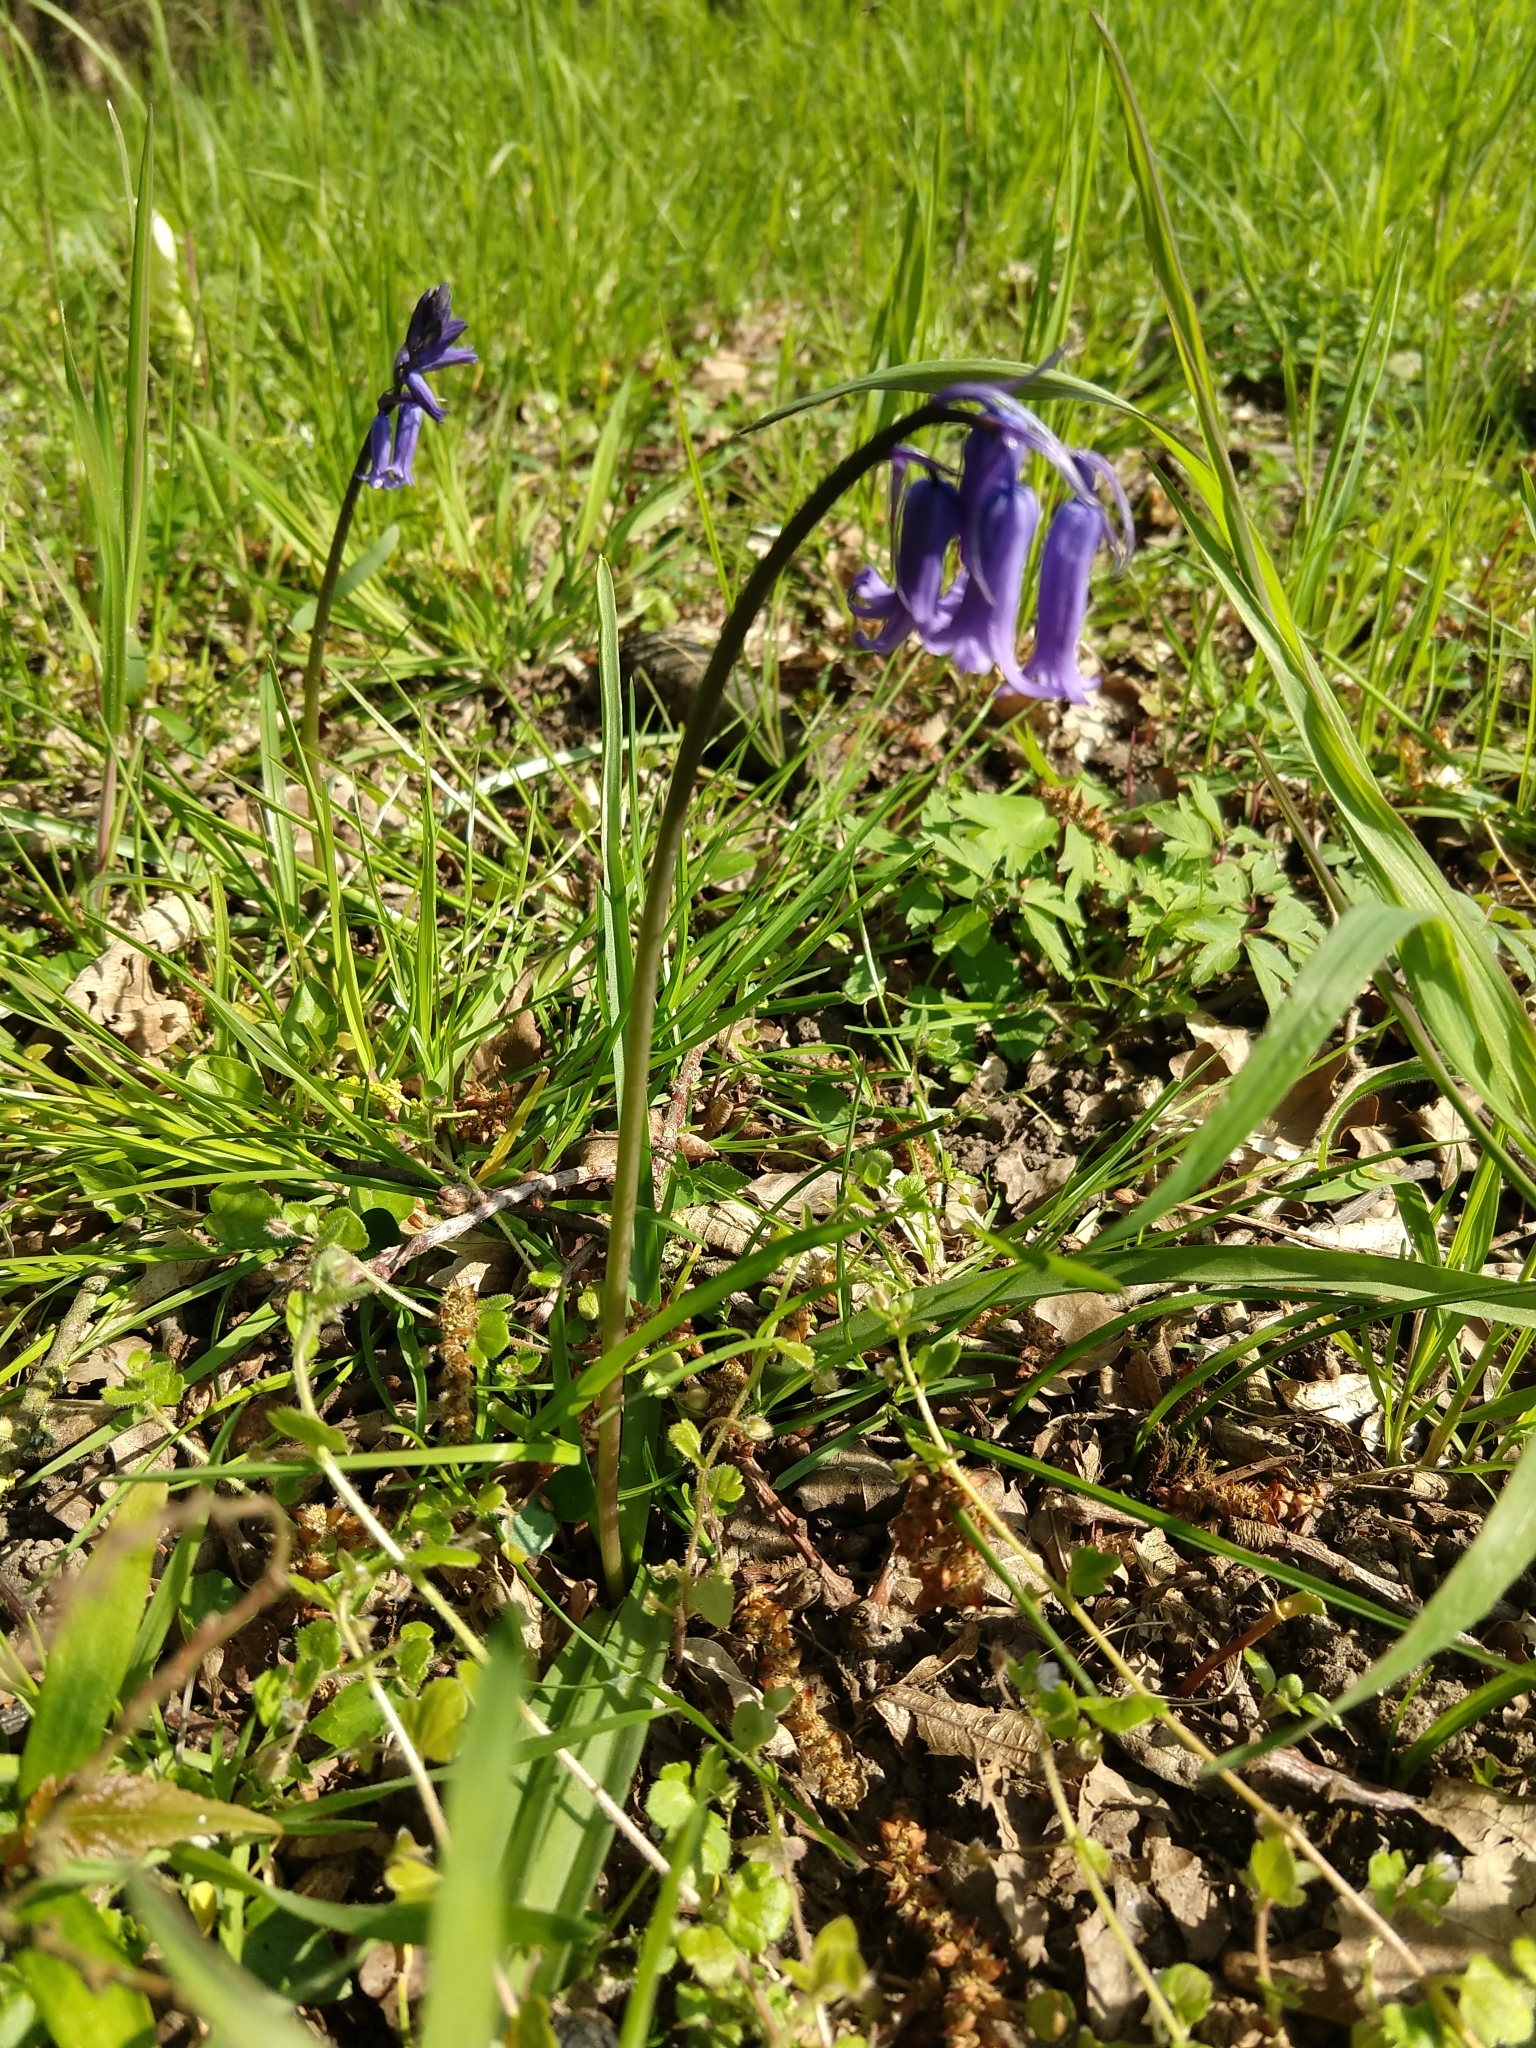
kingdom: Plantae
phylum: Tracheophyta
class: Liliopsida
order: Asparagales
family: Asparagaceae
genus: Hyacinthoides
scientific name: Hyacinthoides non-scripta
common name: Bluebell
